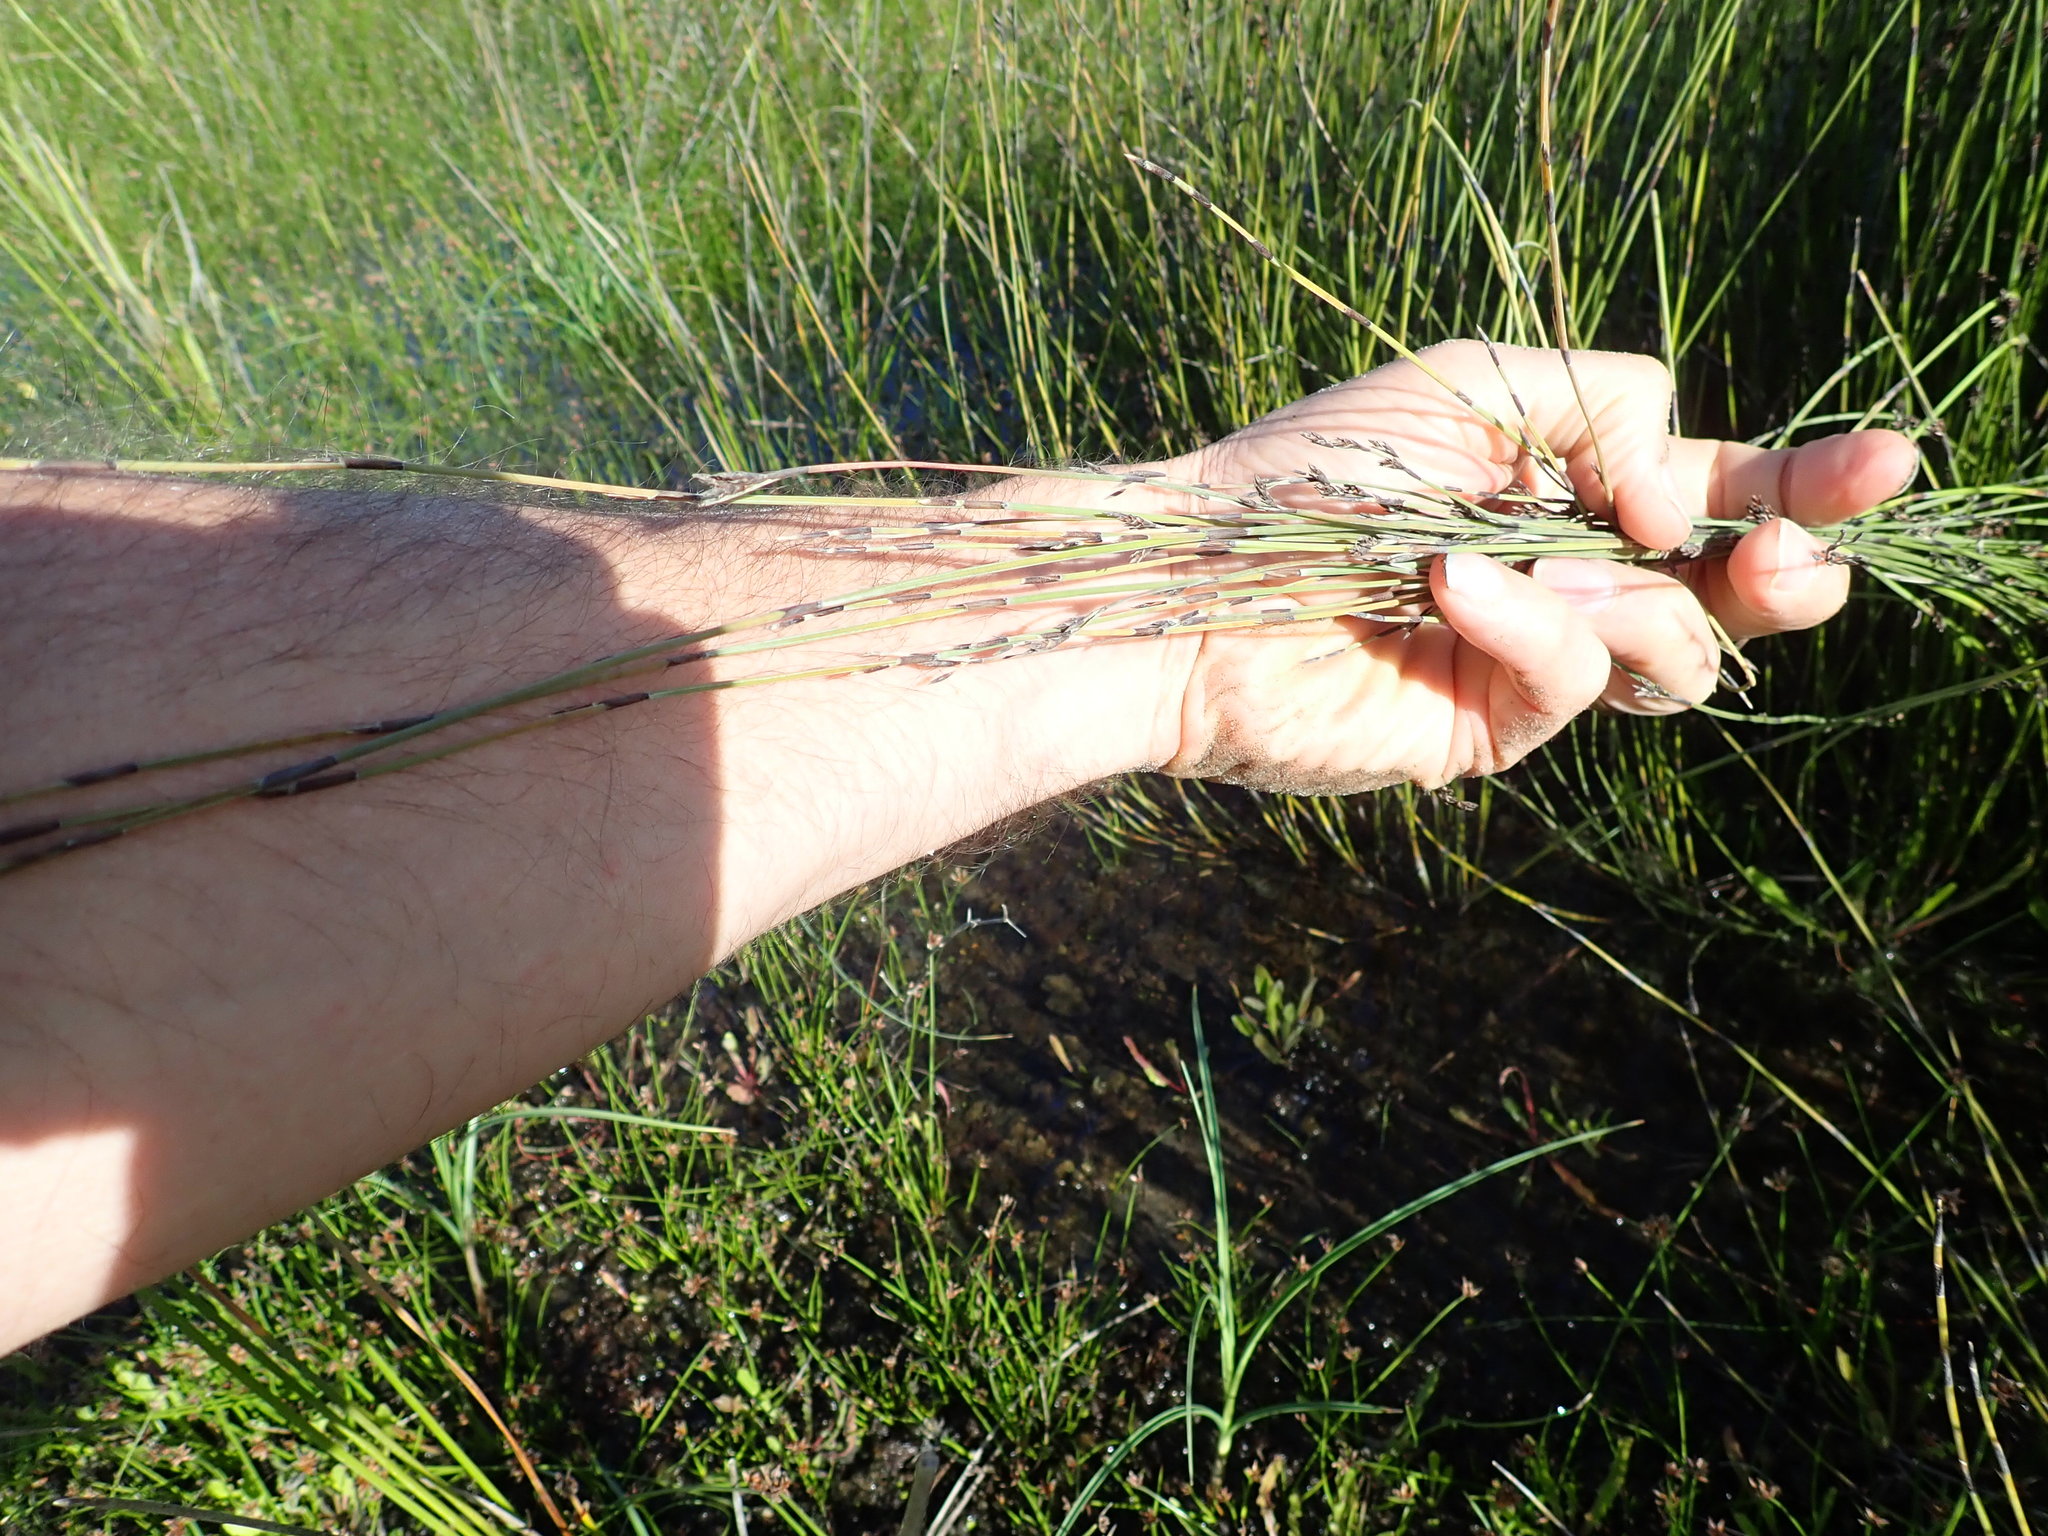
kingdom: Plantae
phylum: Tracheophyta
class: Liliopsida
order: Poales
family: Restionaceae
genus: Apodasmia
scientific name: Apodasmia similis
